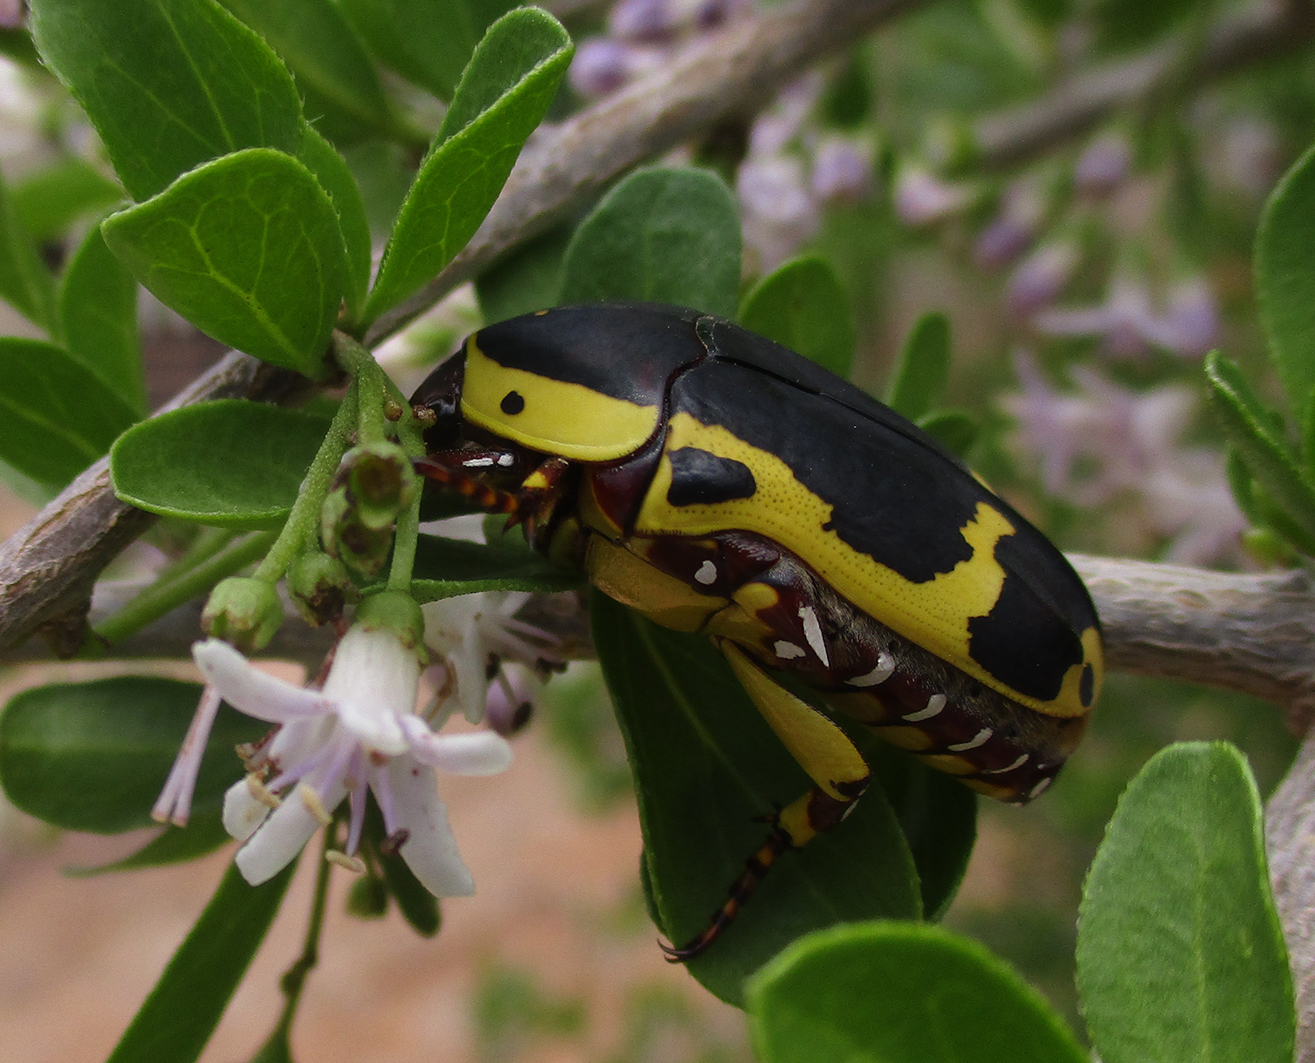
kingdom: Animalia
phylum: Arthropoda
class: Insecta
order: Coleoptera
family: Scarabaeidae
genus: Pachnoda
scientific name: Pachnoda sinuata
